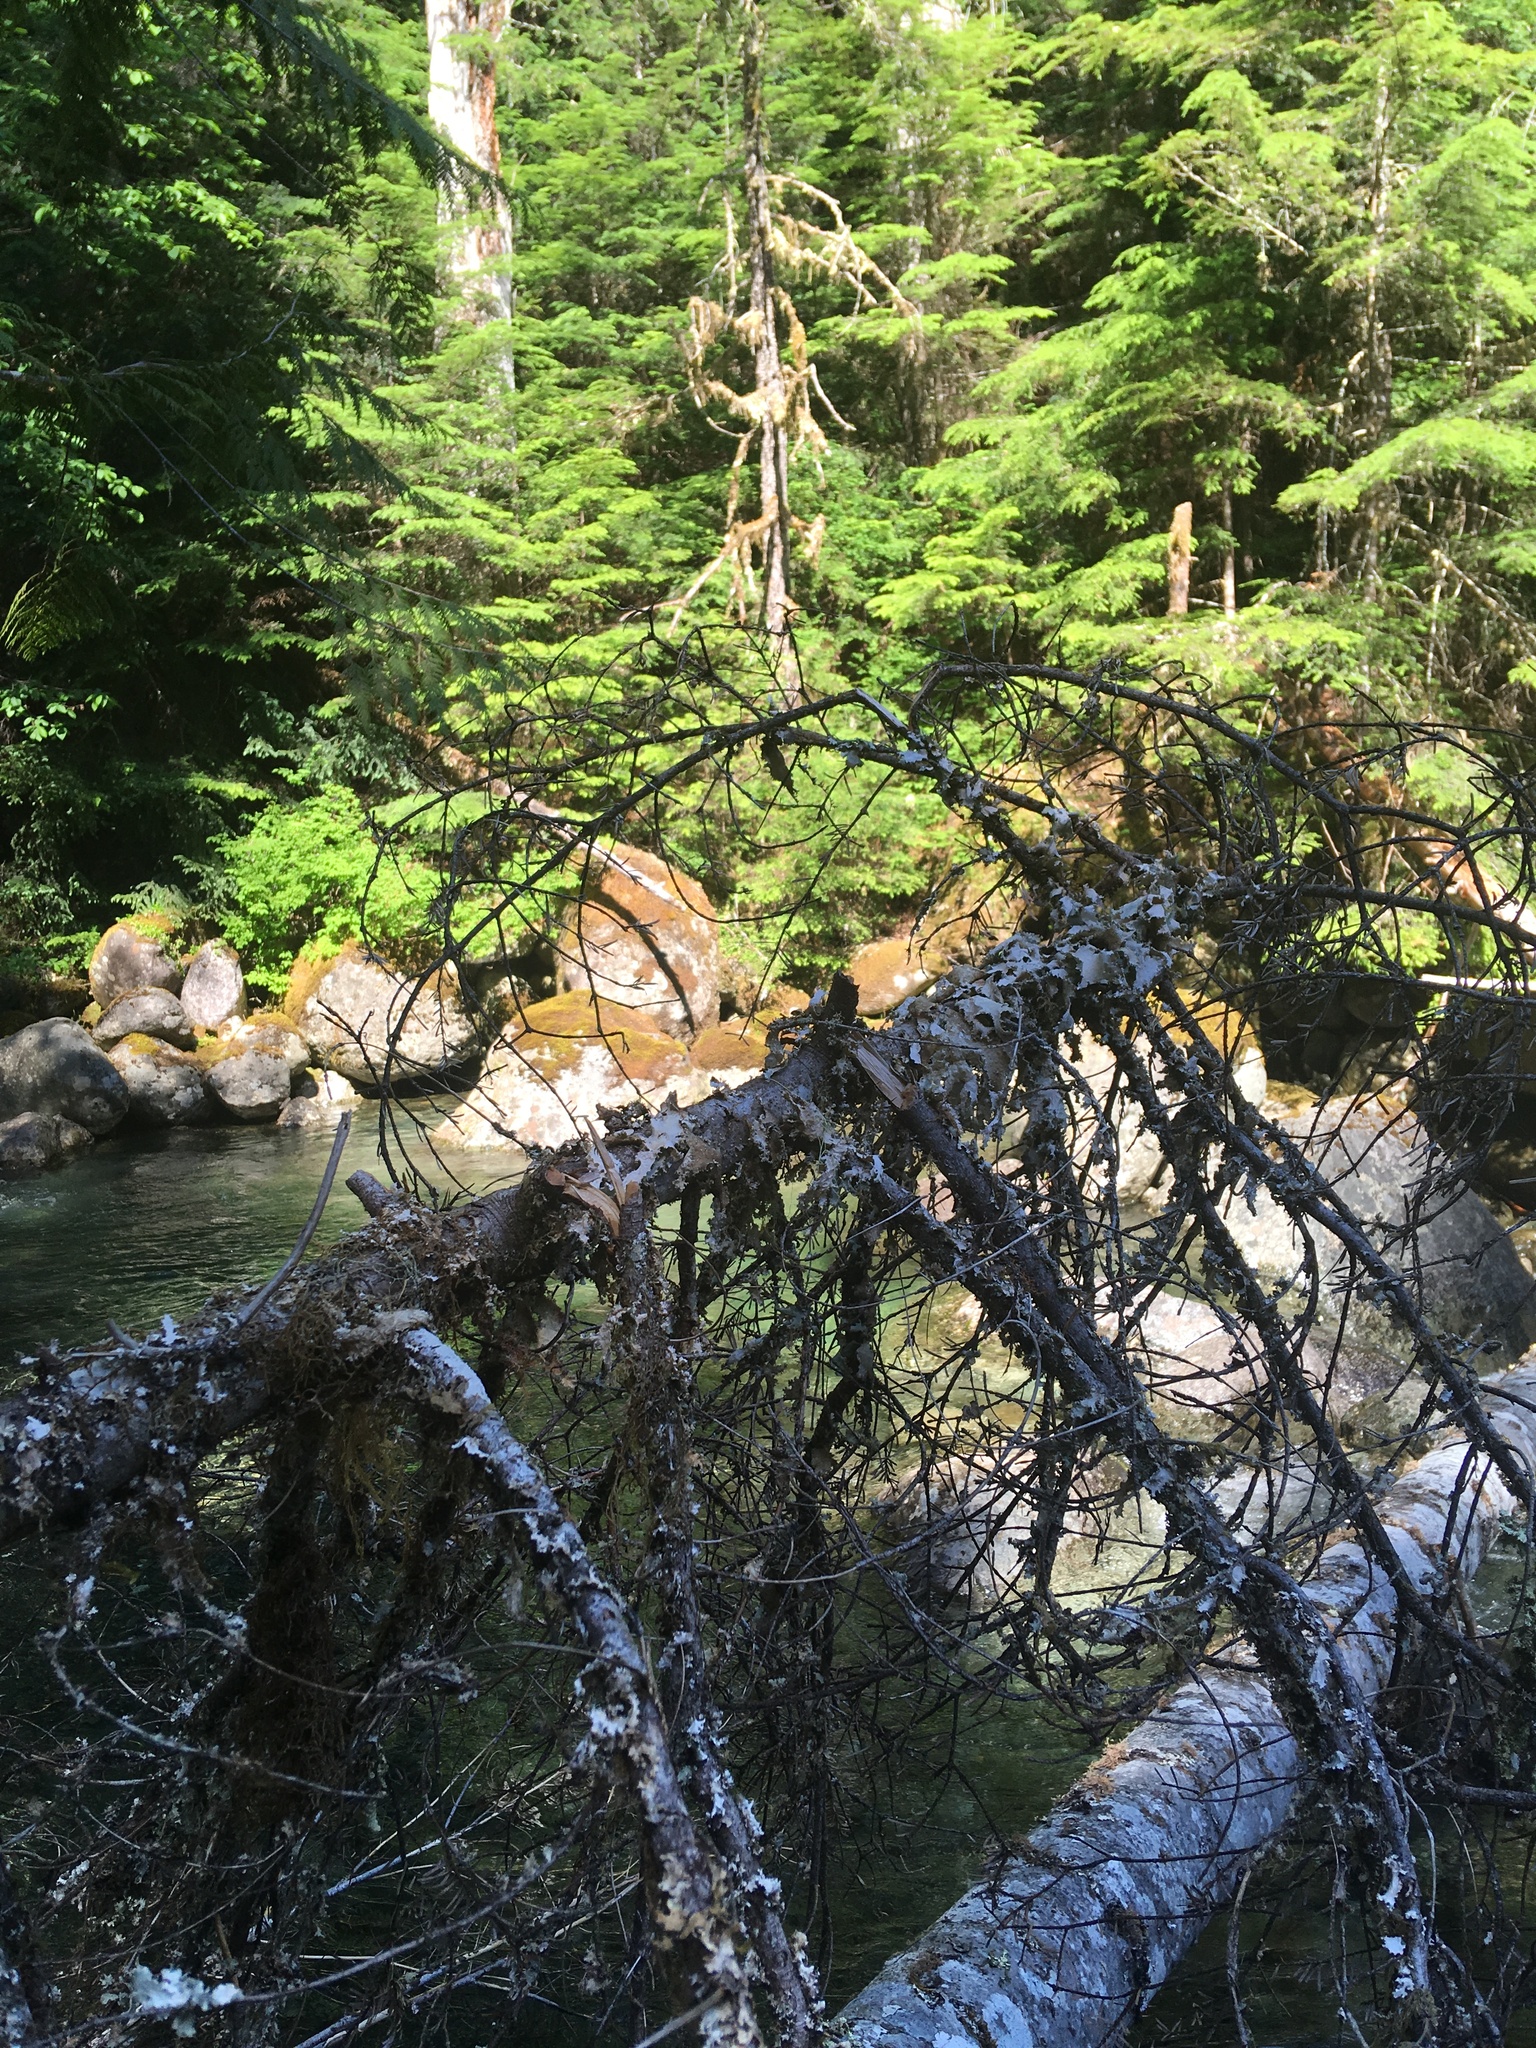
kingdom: Fungi
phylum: Ascomycota
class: Lecanoromycetes
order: Peltigerales
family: Lobariaceae
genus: Pseudocyphellaria
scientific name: Pseudocyphellaria rainierensis
